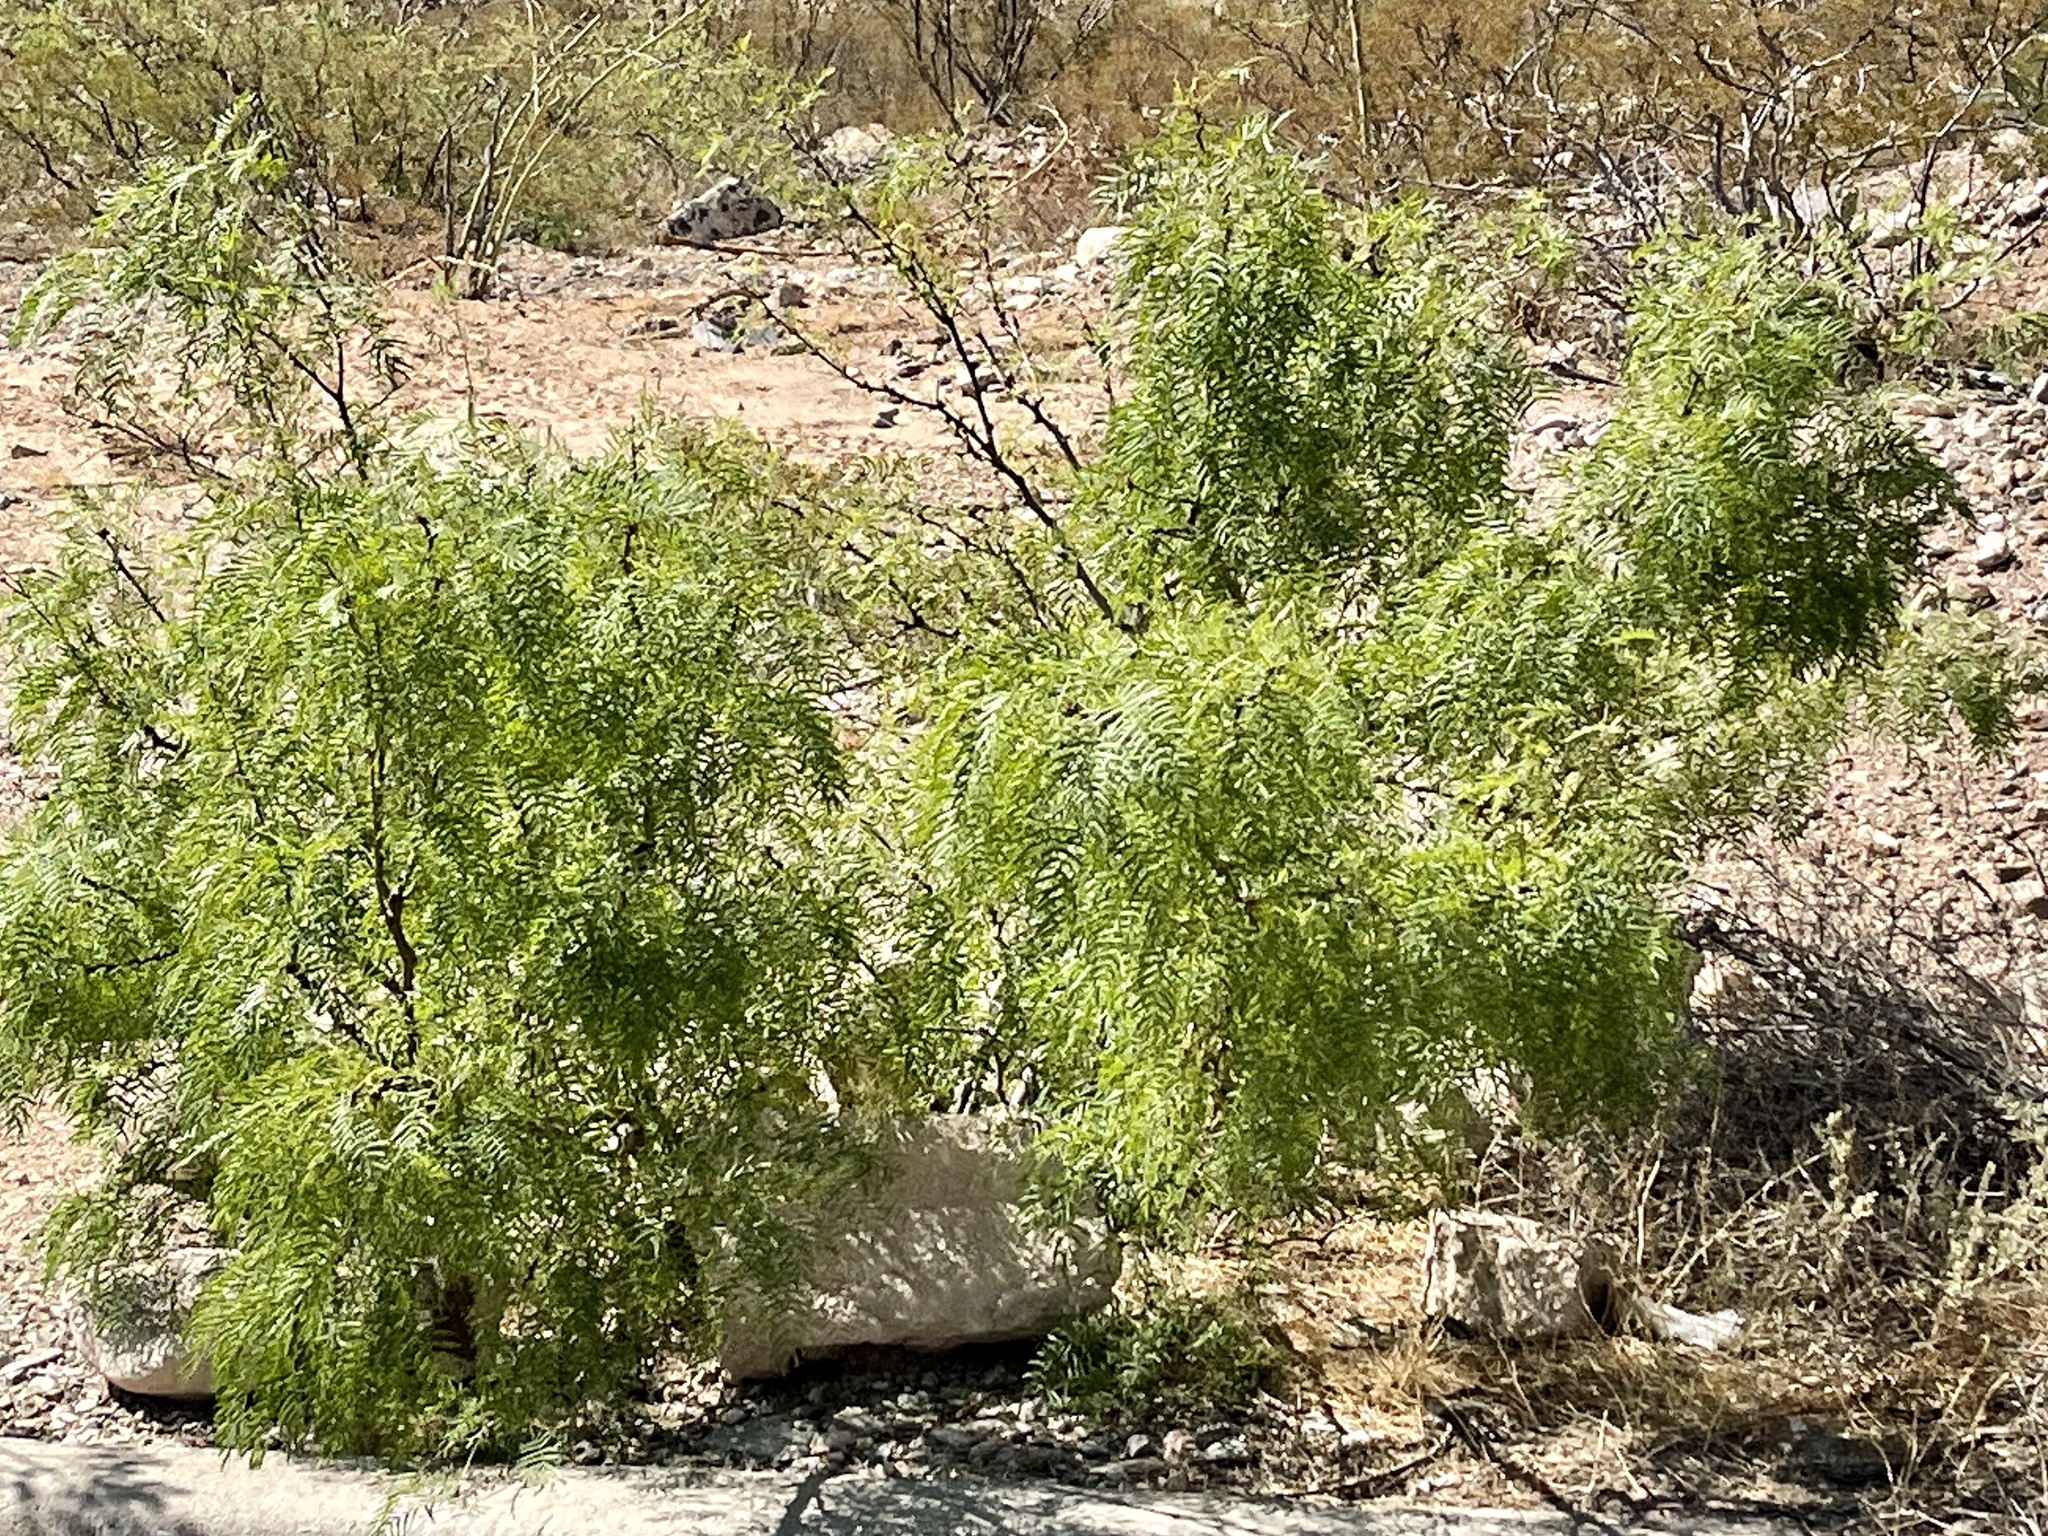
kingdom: Plantae
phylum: Tracheophyta
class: Magnoliopsida
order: Fabales
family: Fabaceae
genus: Prosopis
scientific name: Prosopis glandulosa
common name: Honey mesquite
